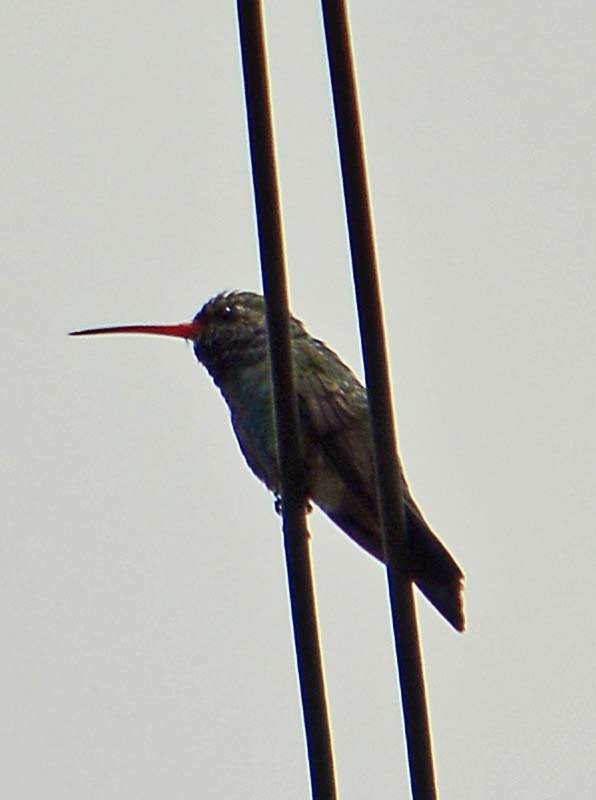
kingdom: Animalia
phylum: Chordata
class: Aves
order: Apodiformes
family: Trochilidae
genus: Cynanthus
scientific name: Cynanthus latirostris
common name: Broad-billed hummingbird
